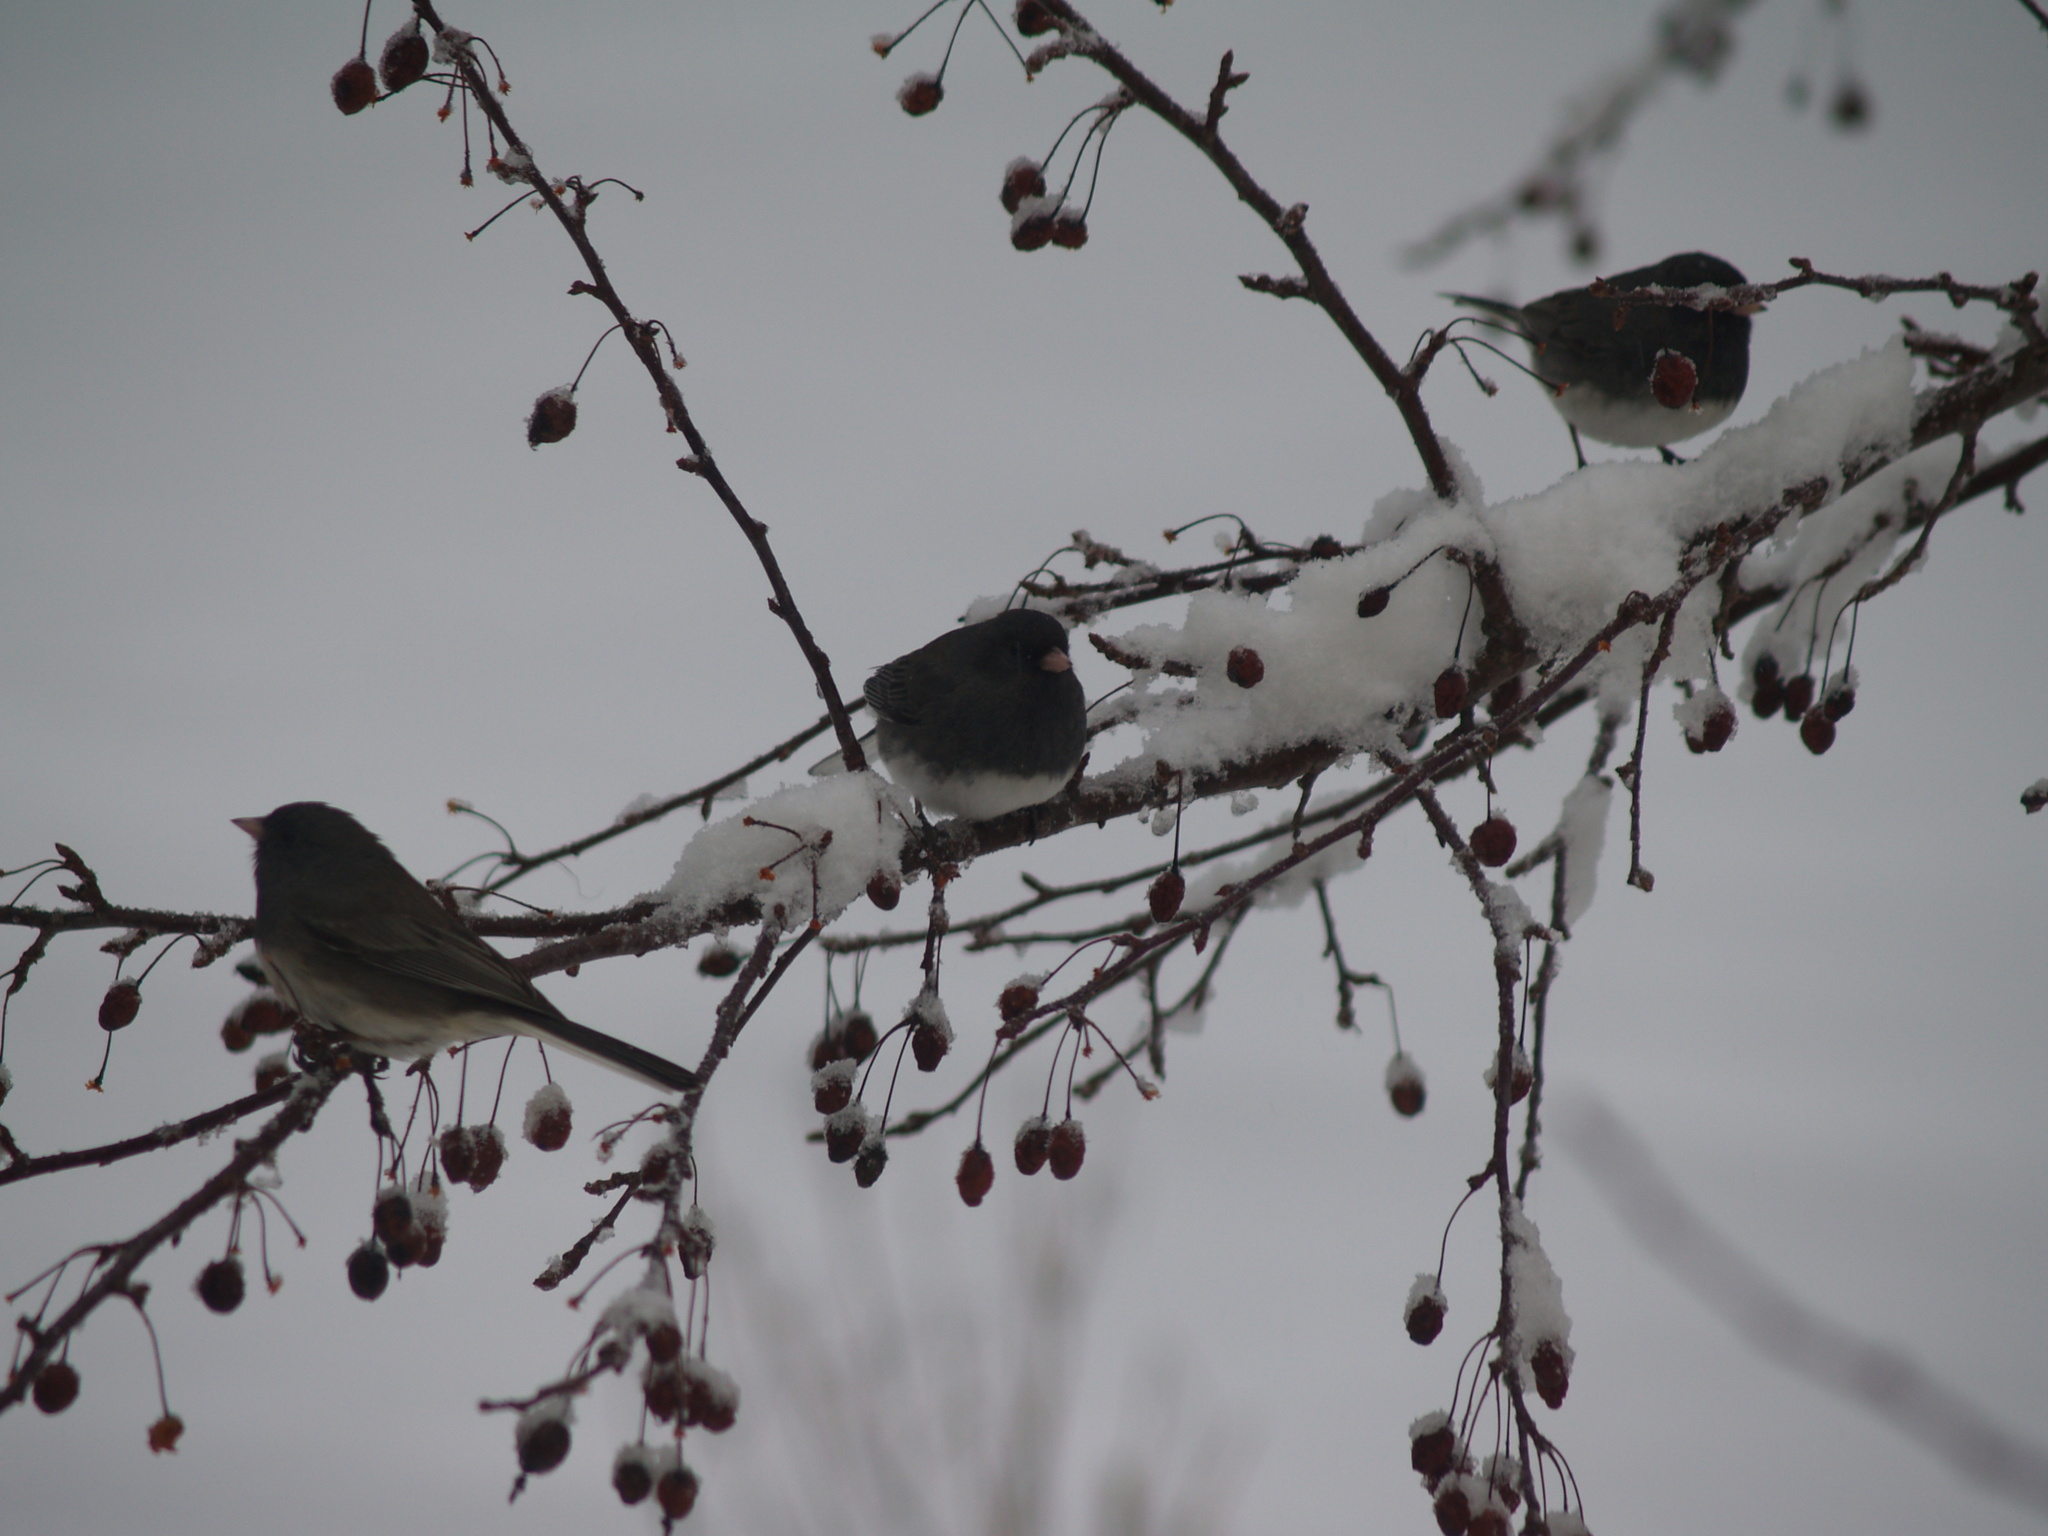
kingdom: Animalia
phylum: Chordata
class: Aves
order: Passeriformes
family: Passerellidae
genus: Junco
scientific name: Junco hyemalis
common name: Dark-eyed junco
